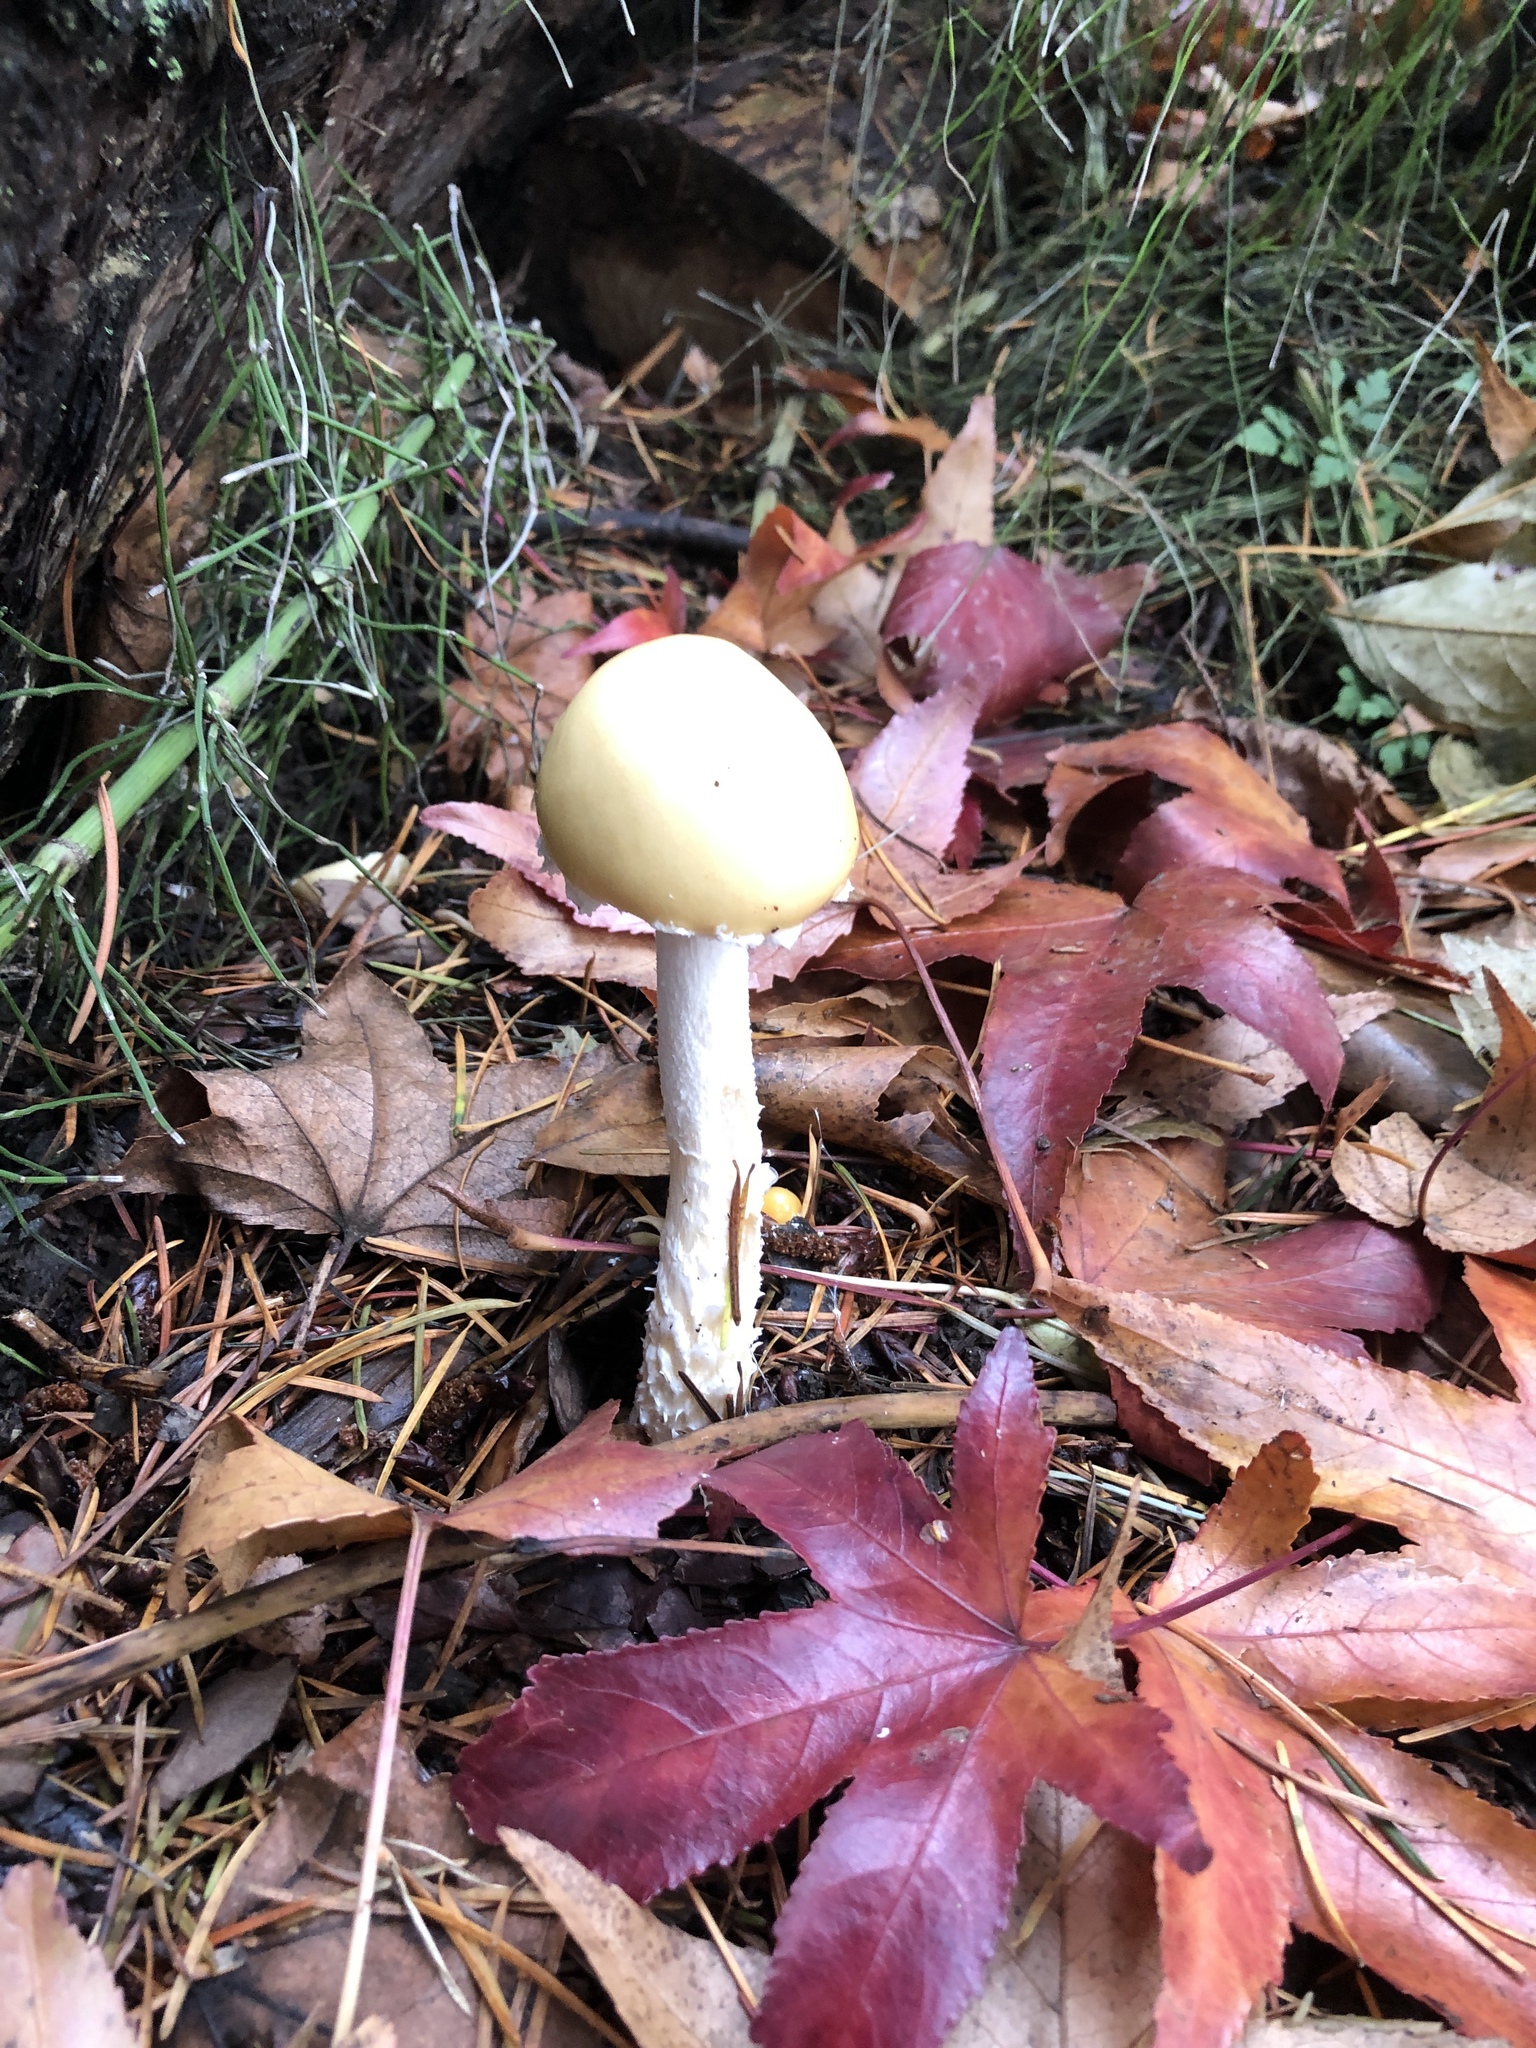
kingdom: Fungi
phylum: Basidiomycota
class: Agaricomycetes
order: Agaricales
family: Strophariaceae
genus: Stropharia
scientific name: Stropharia ambigua
